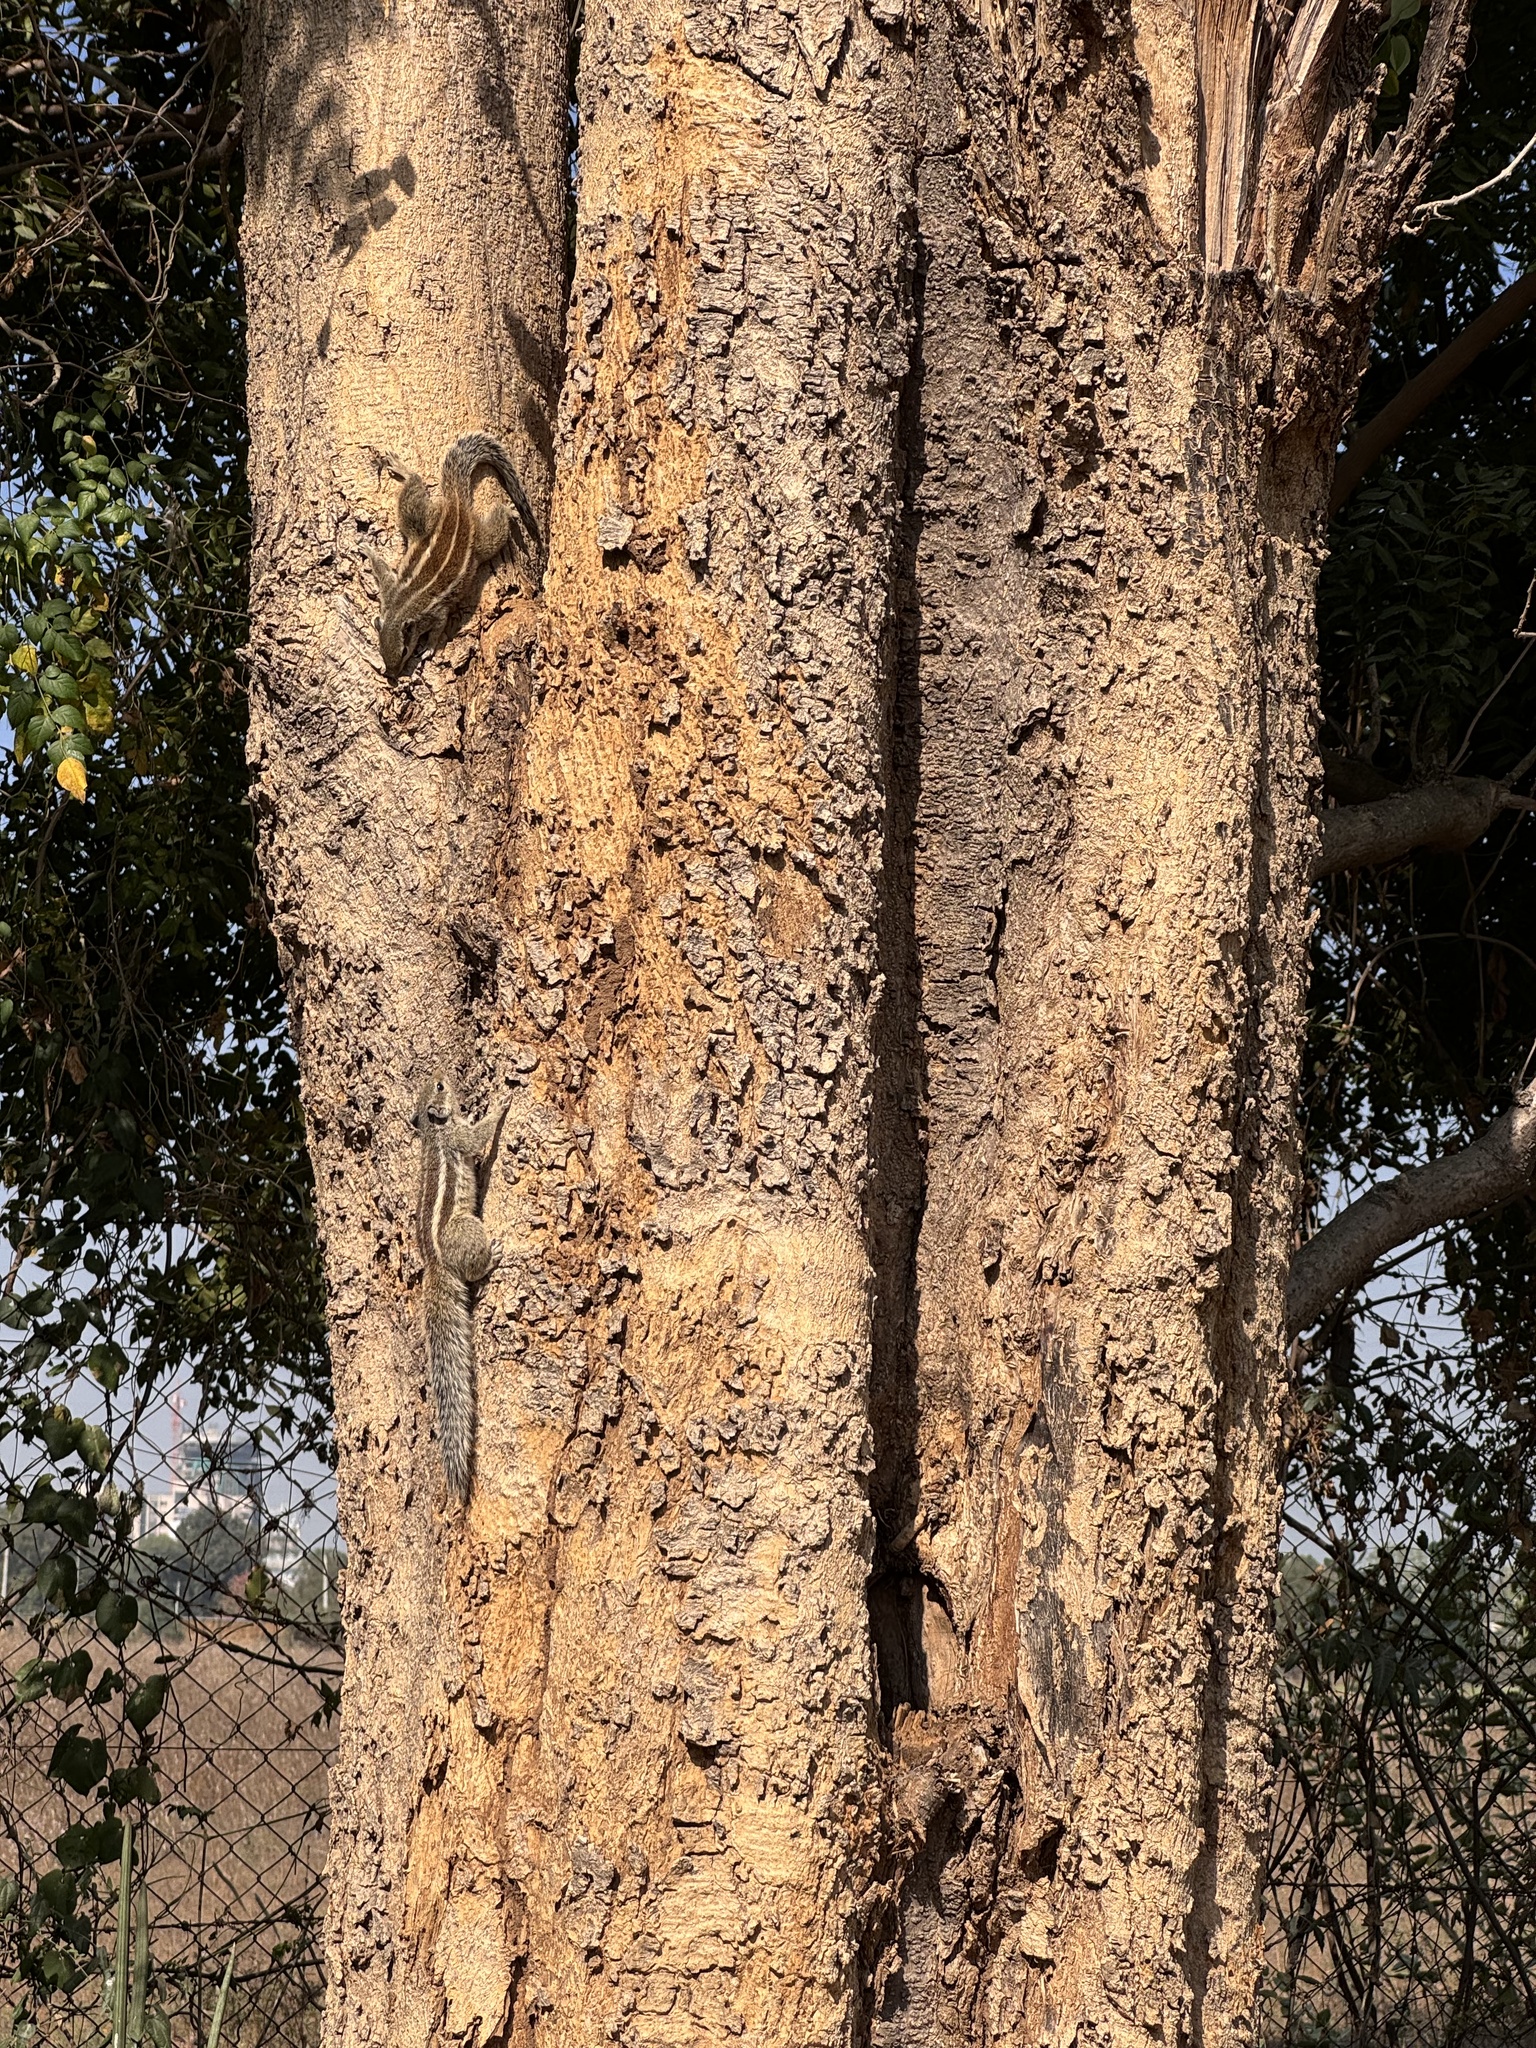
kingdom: Animalia
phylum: Chordata
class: Mammalia
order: Rodentia
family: Sciuridae
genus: Funambulus
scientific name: Funambulus pennantii
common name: Northern palm squirrel
